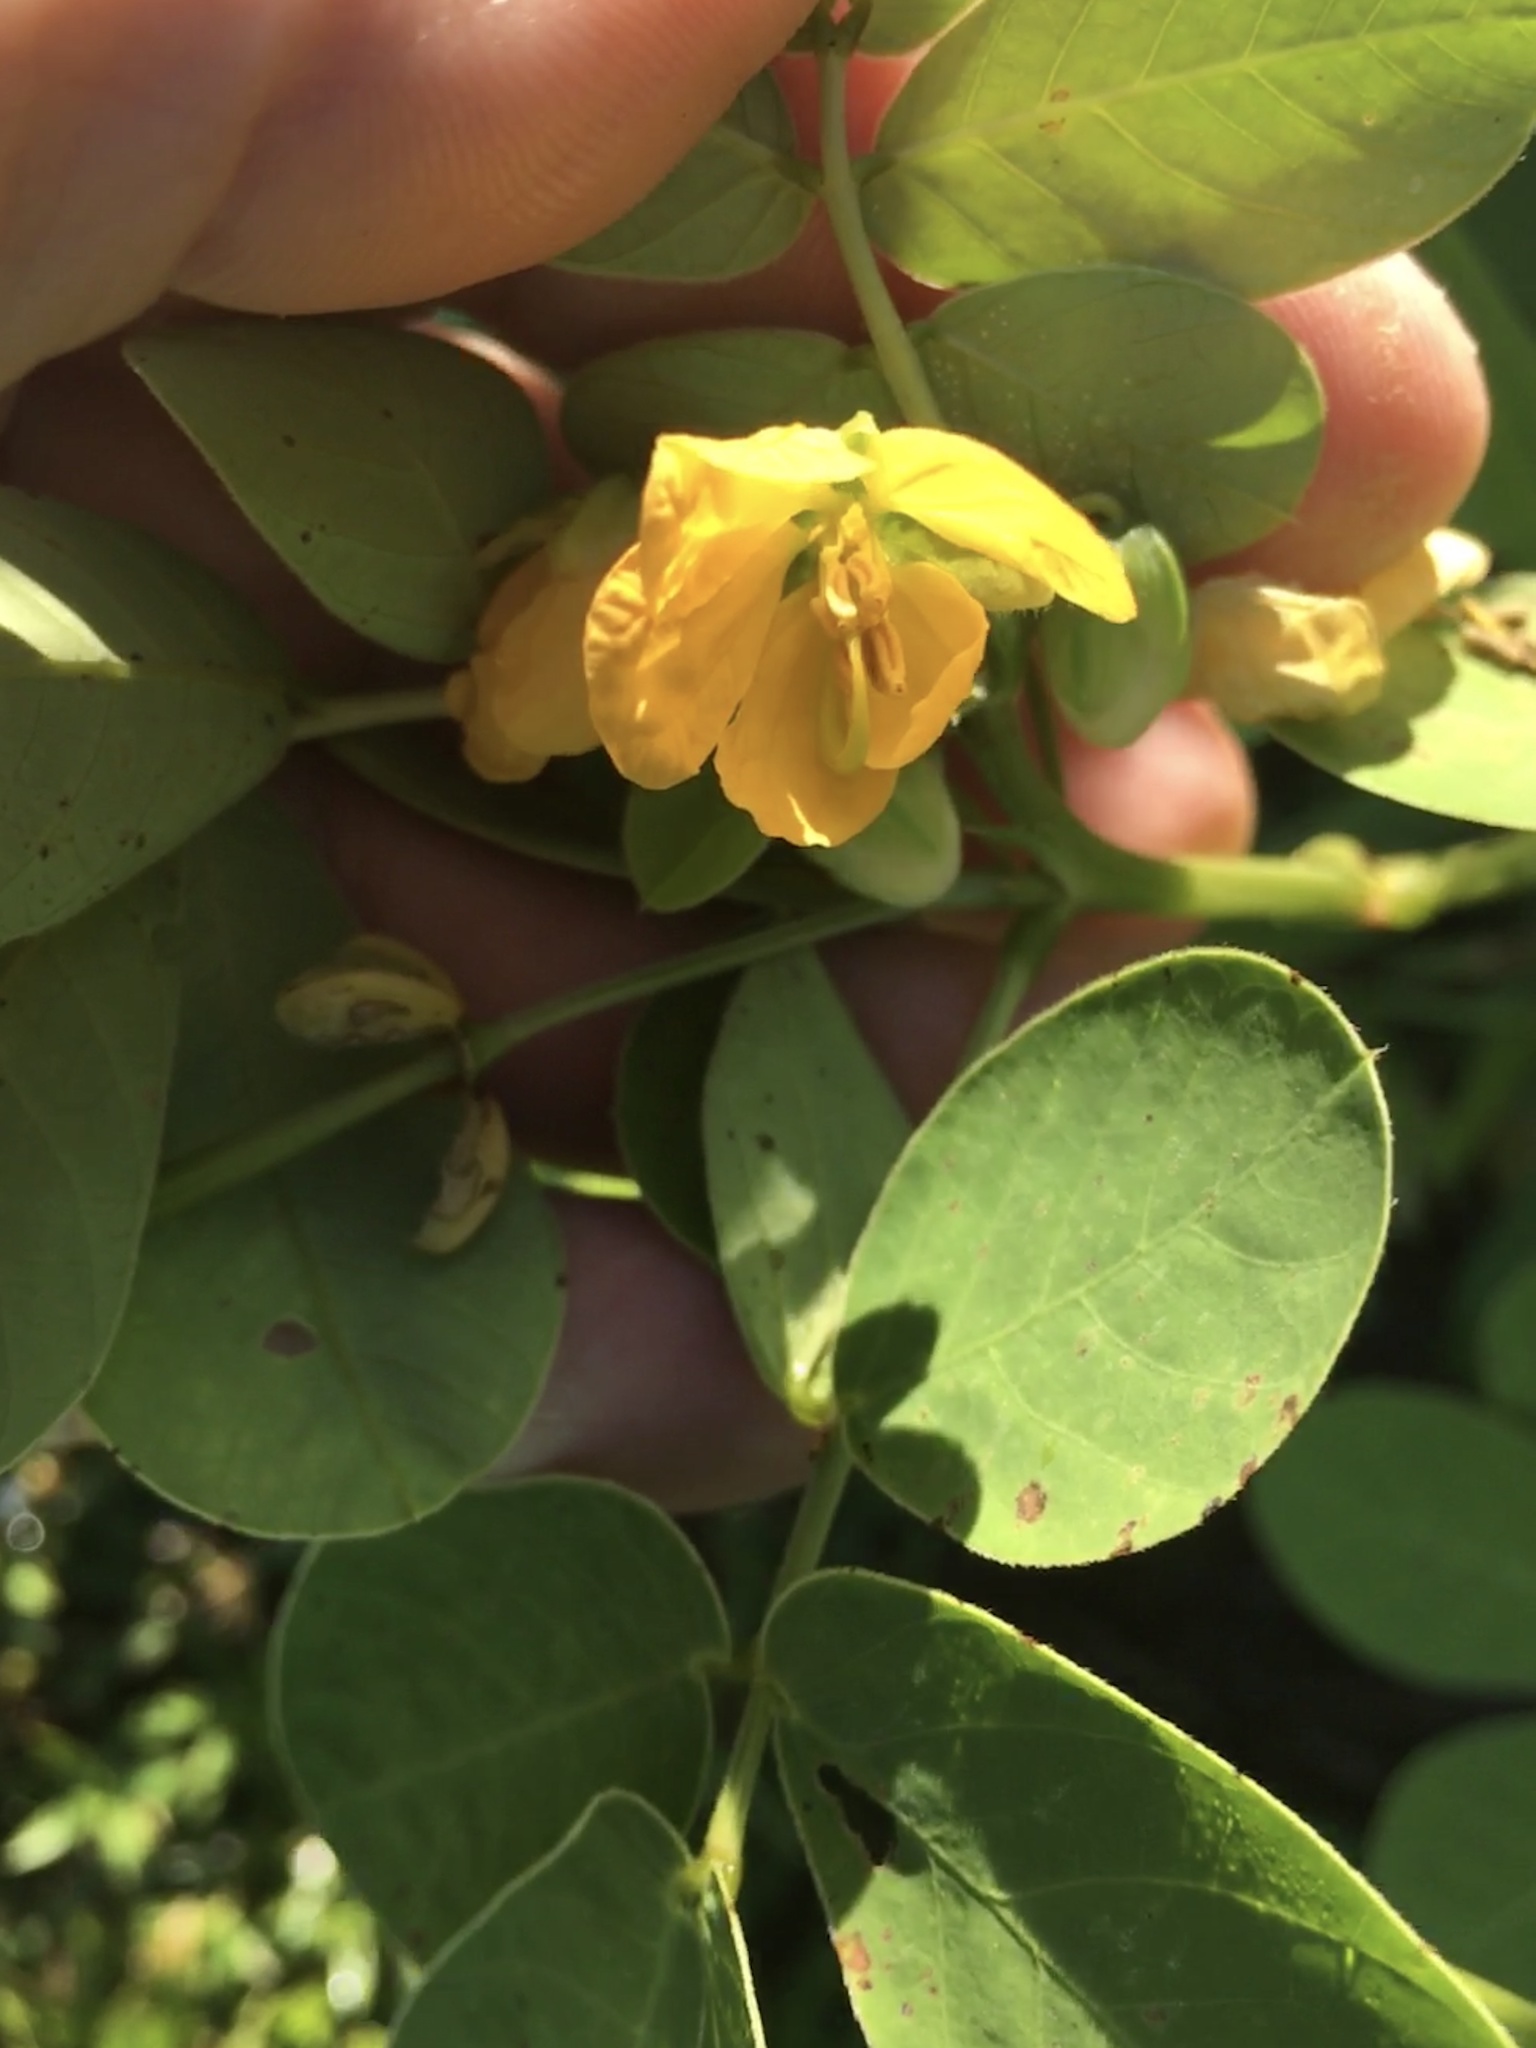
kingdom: Plantae
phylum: Tracheophyta
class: Magnoliopsida
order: Fabales
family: Fabaceae
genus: Senna
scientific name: Senna obtusifolia
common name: Java-bean
